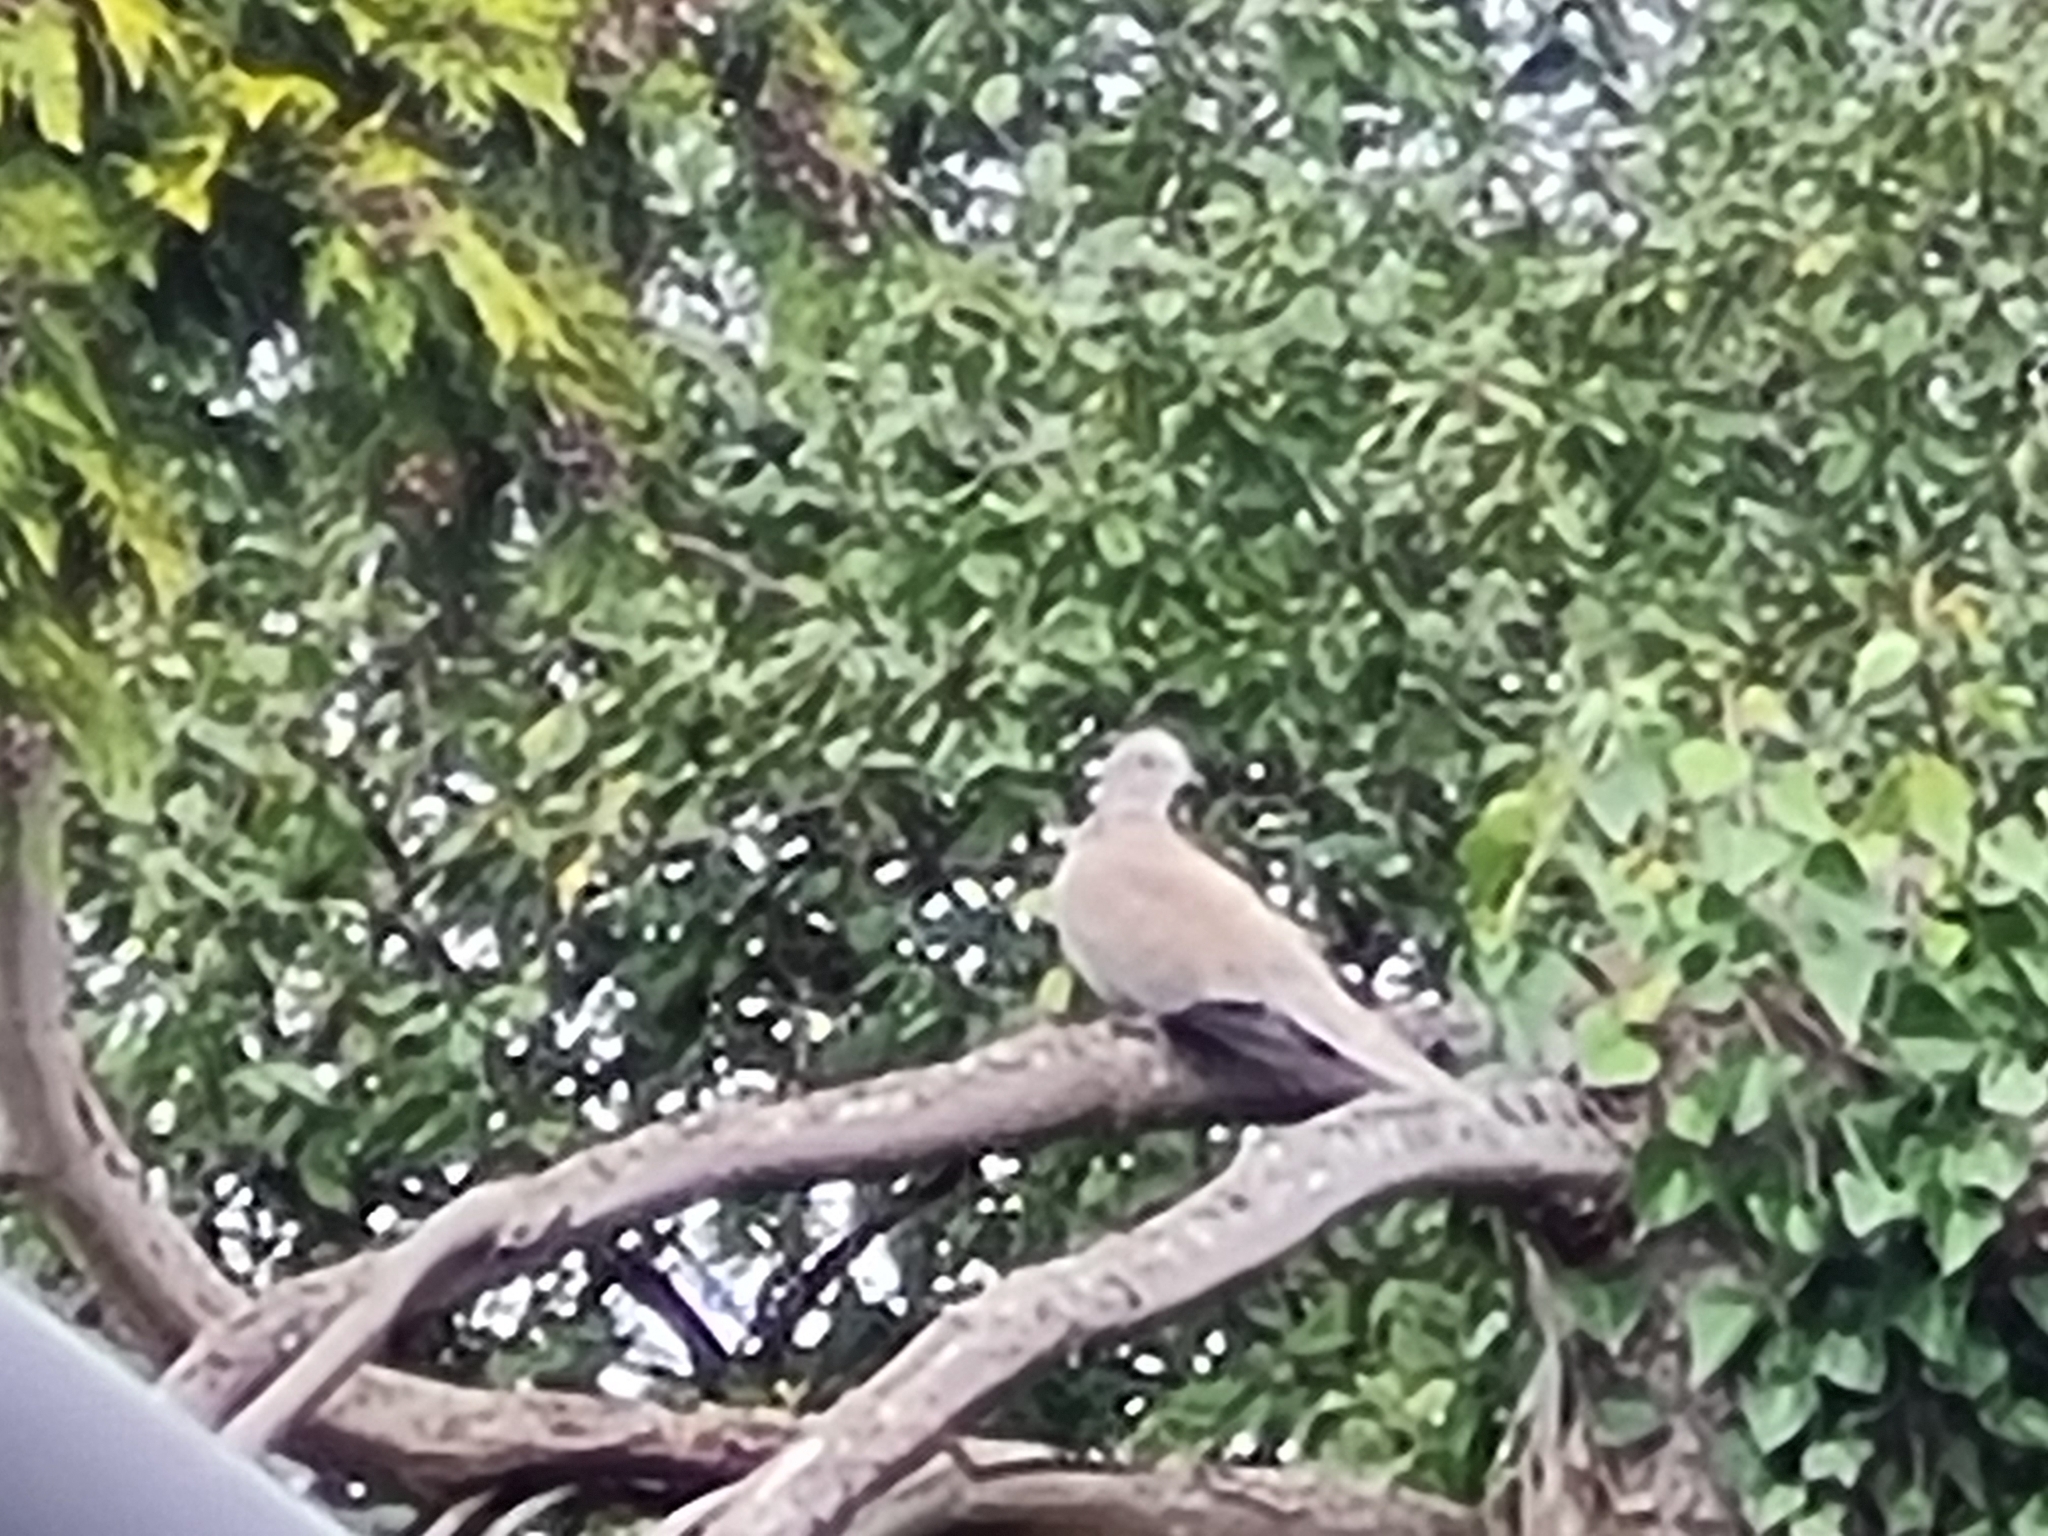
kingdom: Animalia
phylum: Chordata
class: Aves
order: Columbiformes
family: Columbidae
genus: Streptopelia
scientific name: Streptopelia decaocto
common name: Eurasian collared dove
